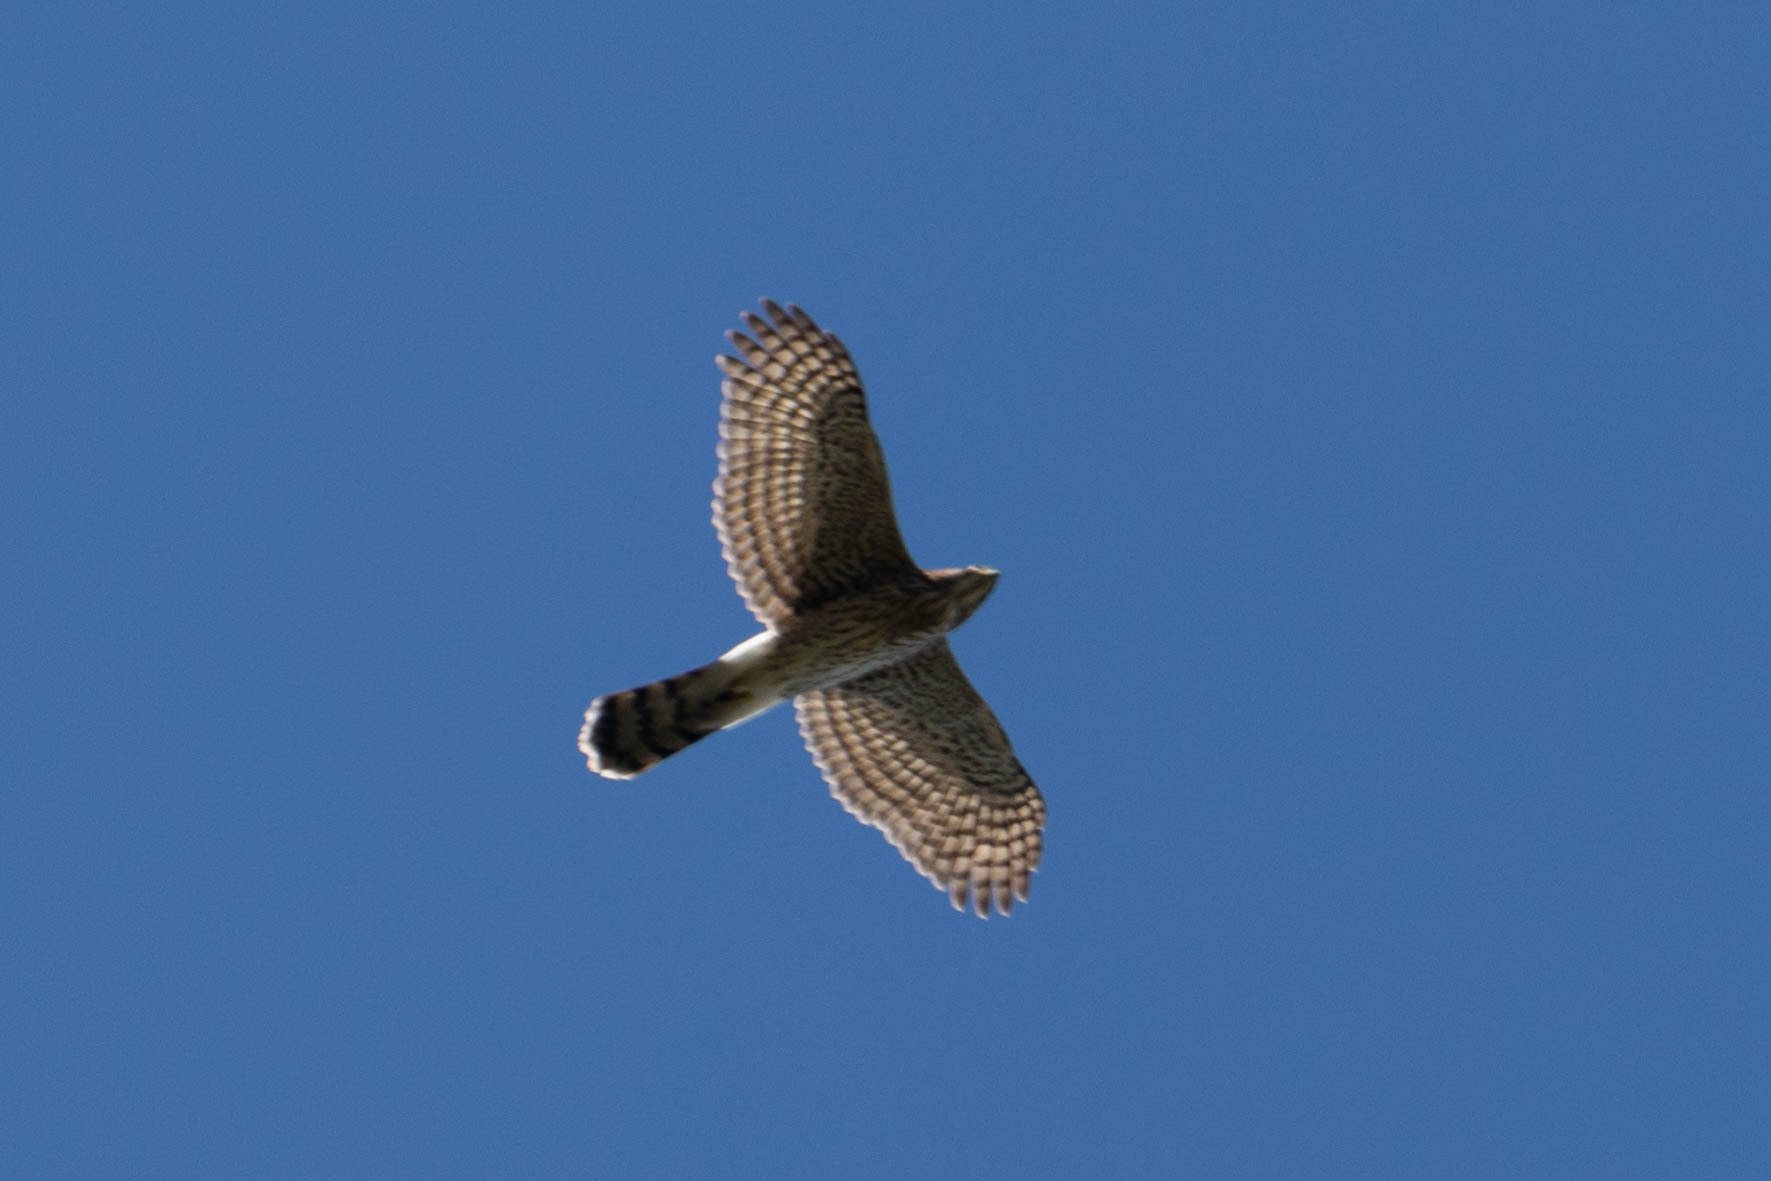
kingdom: Animalia
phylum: Chordata
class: Aves
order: Accipitriformes
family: Accipitridae
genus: Accipiter
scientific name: Accipiter cooperii
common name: Cooper's hawk
